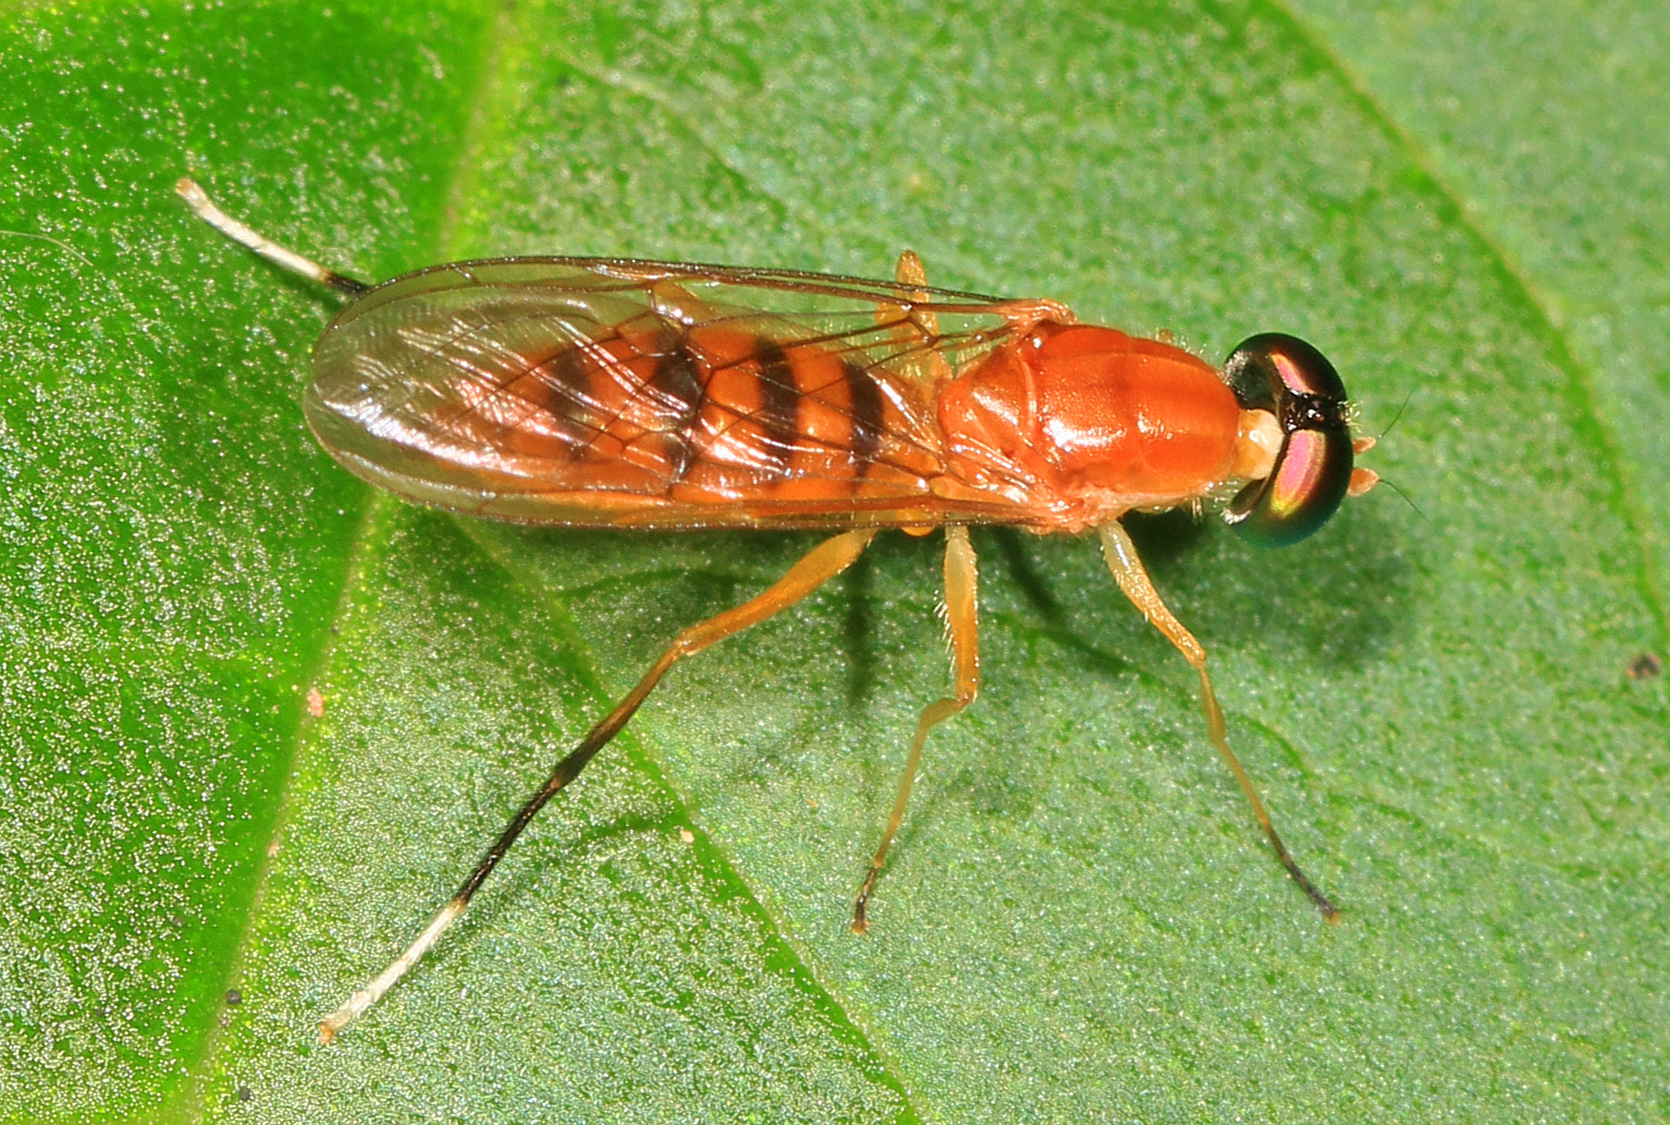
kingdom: Animalia
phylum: Arthropoda
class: Insecta
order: Diptera
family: Stratiomyidae
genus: Ptecticus
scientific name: Ptecticus sackenii
